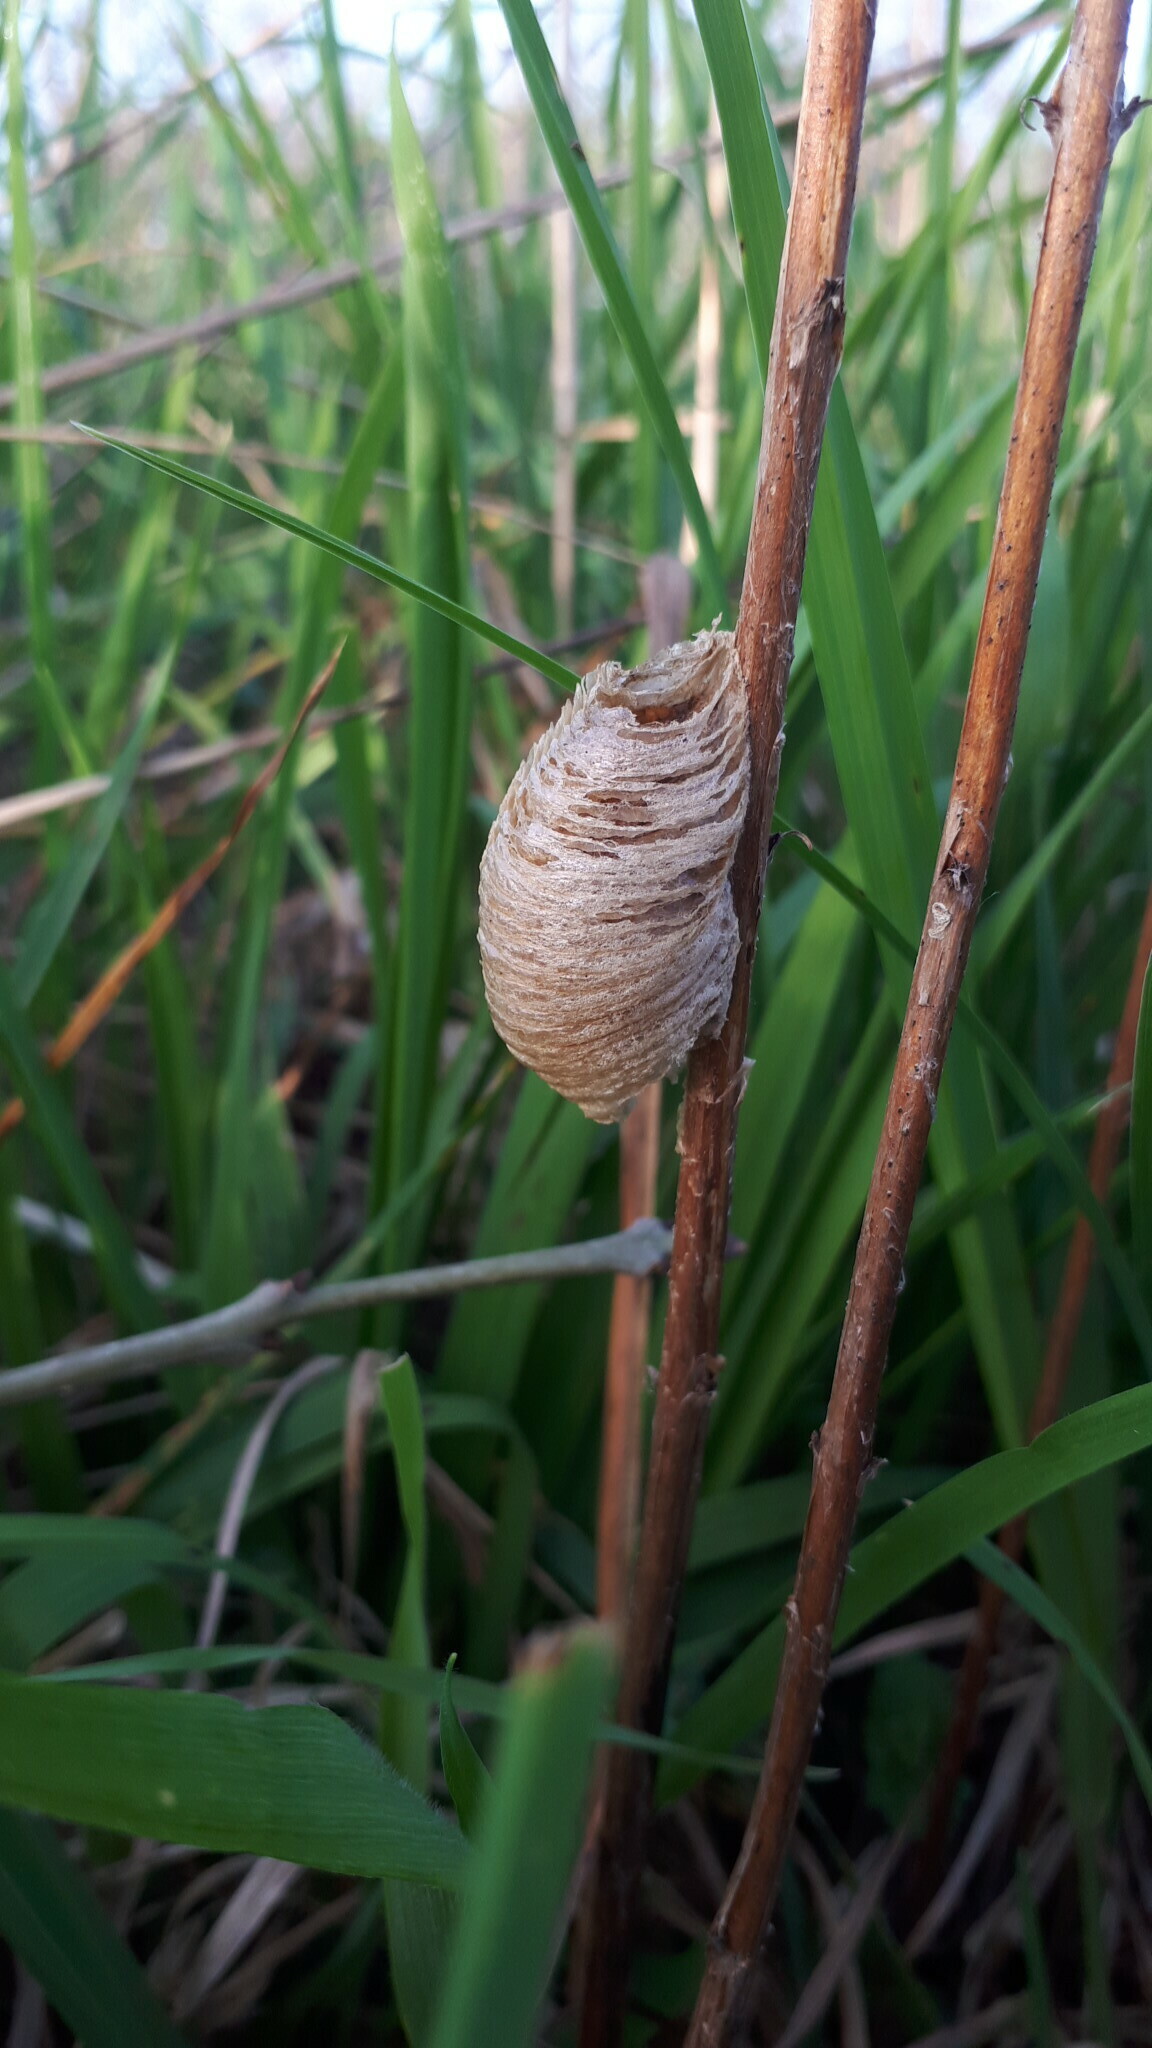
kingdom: Animalia
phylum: Arthropoda
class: Insecta
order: Mantodea
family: Mantidae
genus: Mantis
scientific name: Mantis religiosa
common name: Praying mantis
